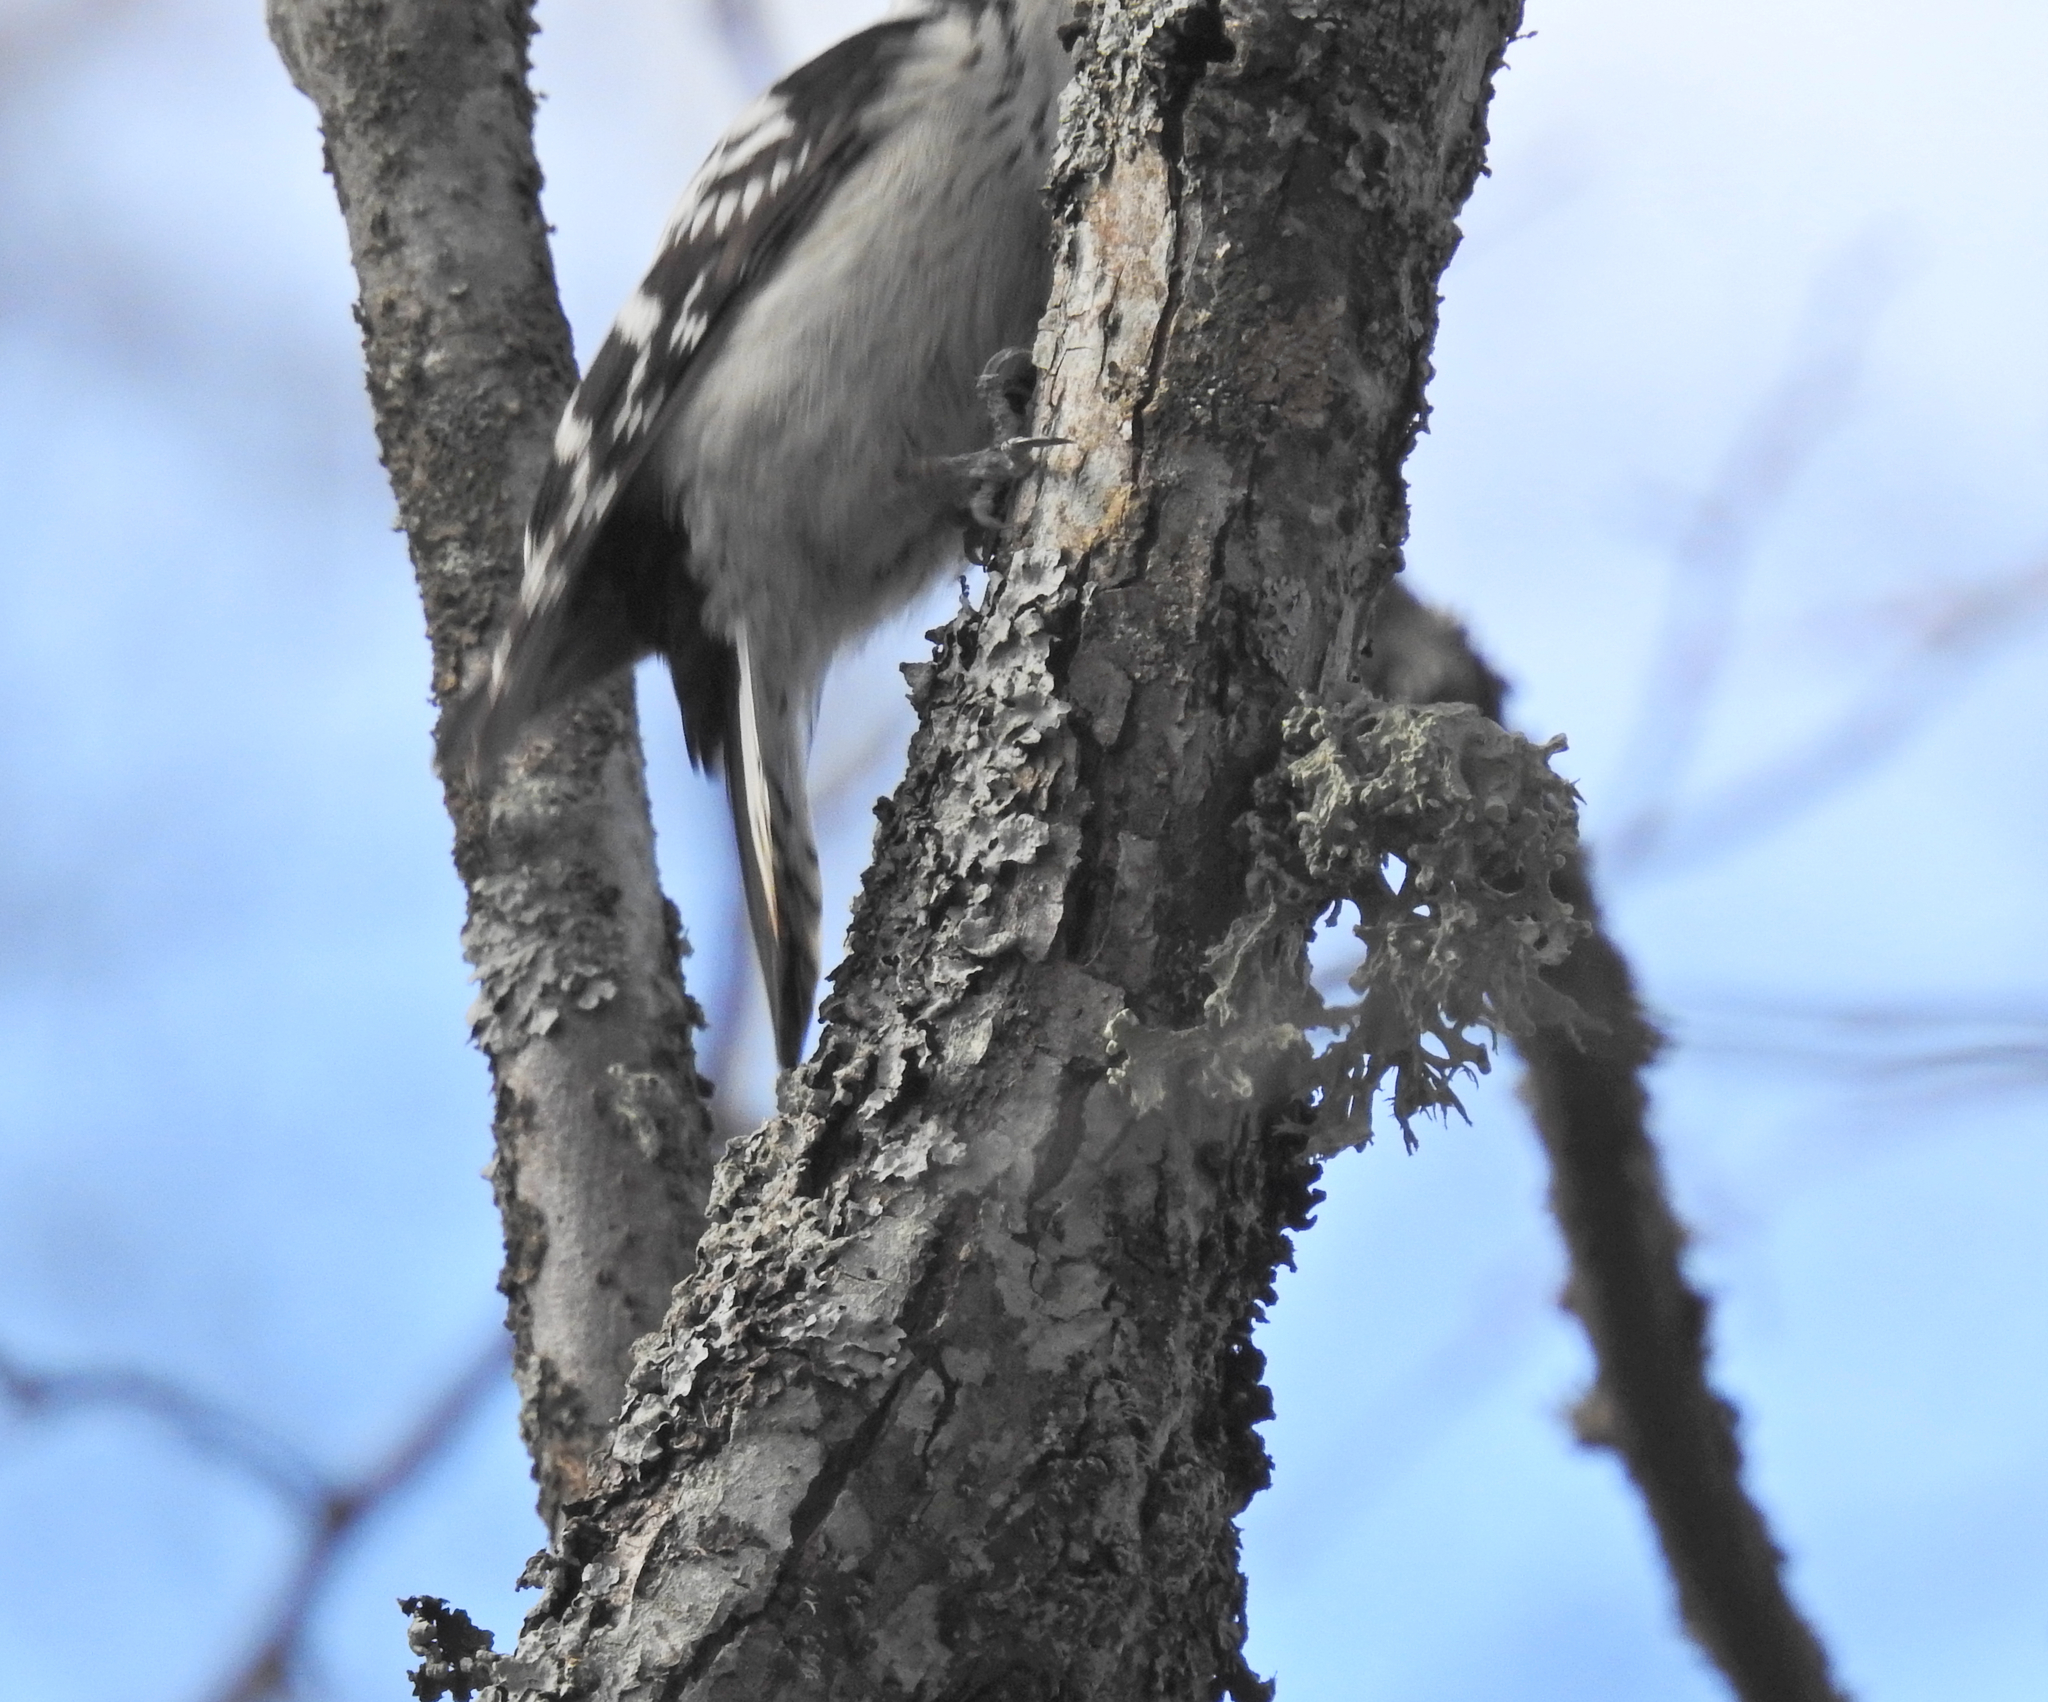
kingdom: Animalia
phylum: Chordata
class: Aves
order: Piciformes
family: Picidae
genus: Dryobates
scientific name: Dryobates minor
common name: Lesser spotted woodpecker
